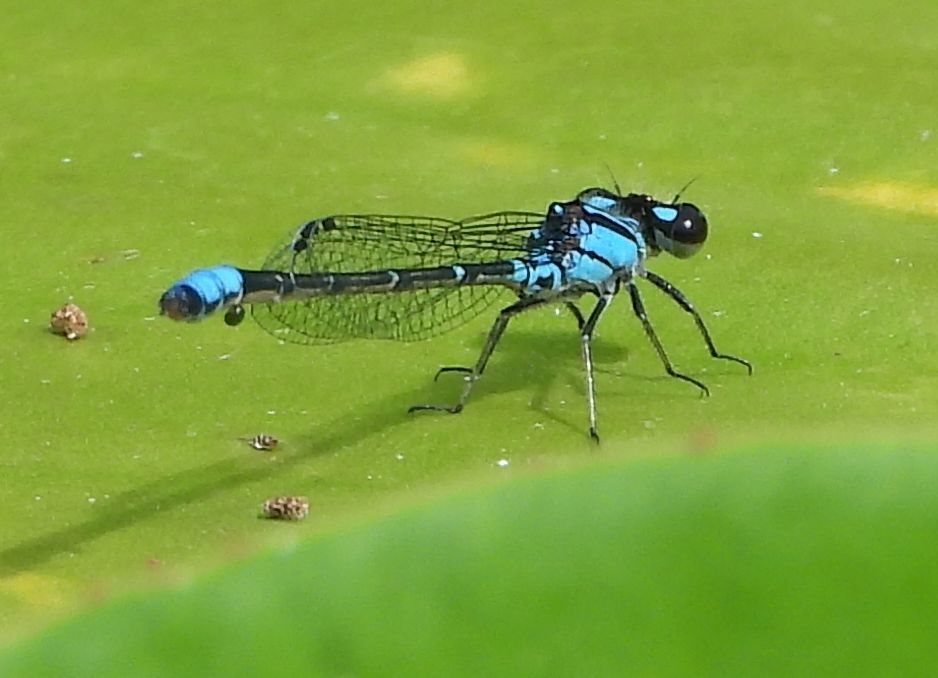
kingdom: Animalia
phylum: Arthropoda
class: Insecta
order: Odonata
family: Coenagrionidae
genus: Enallagma
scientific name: Enallagma geminatum
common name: Skimming bluet
